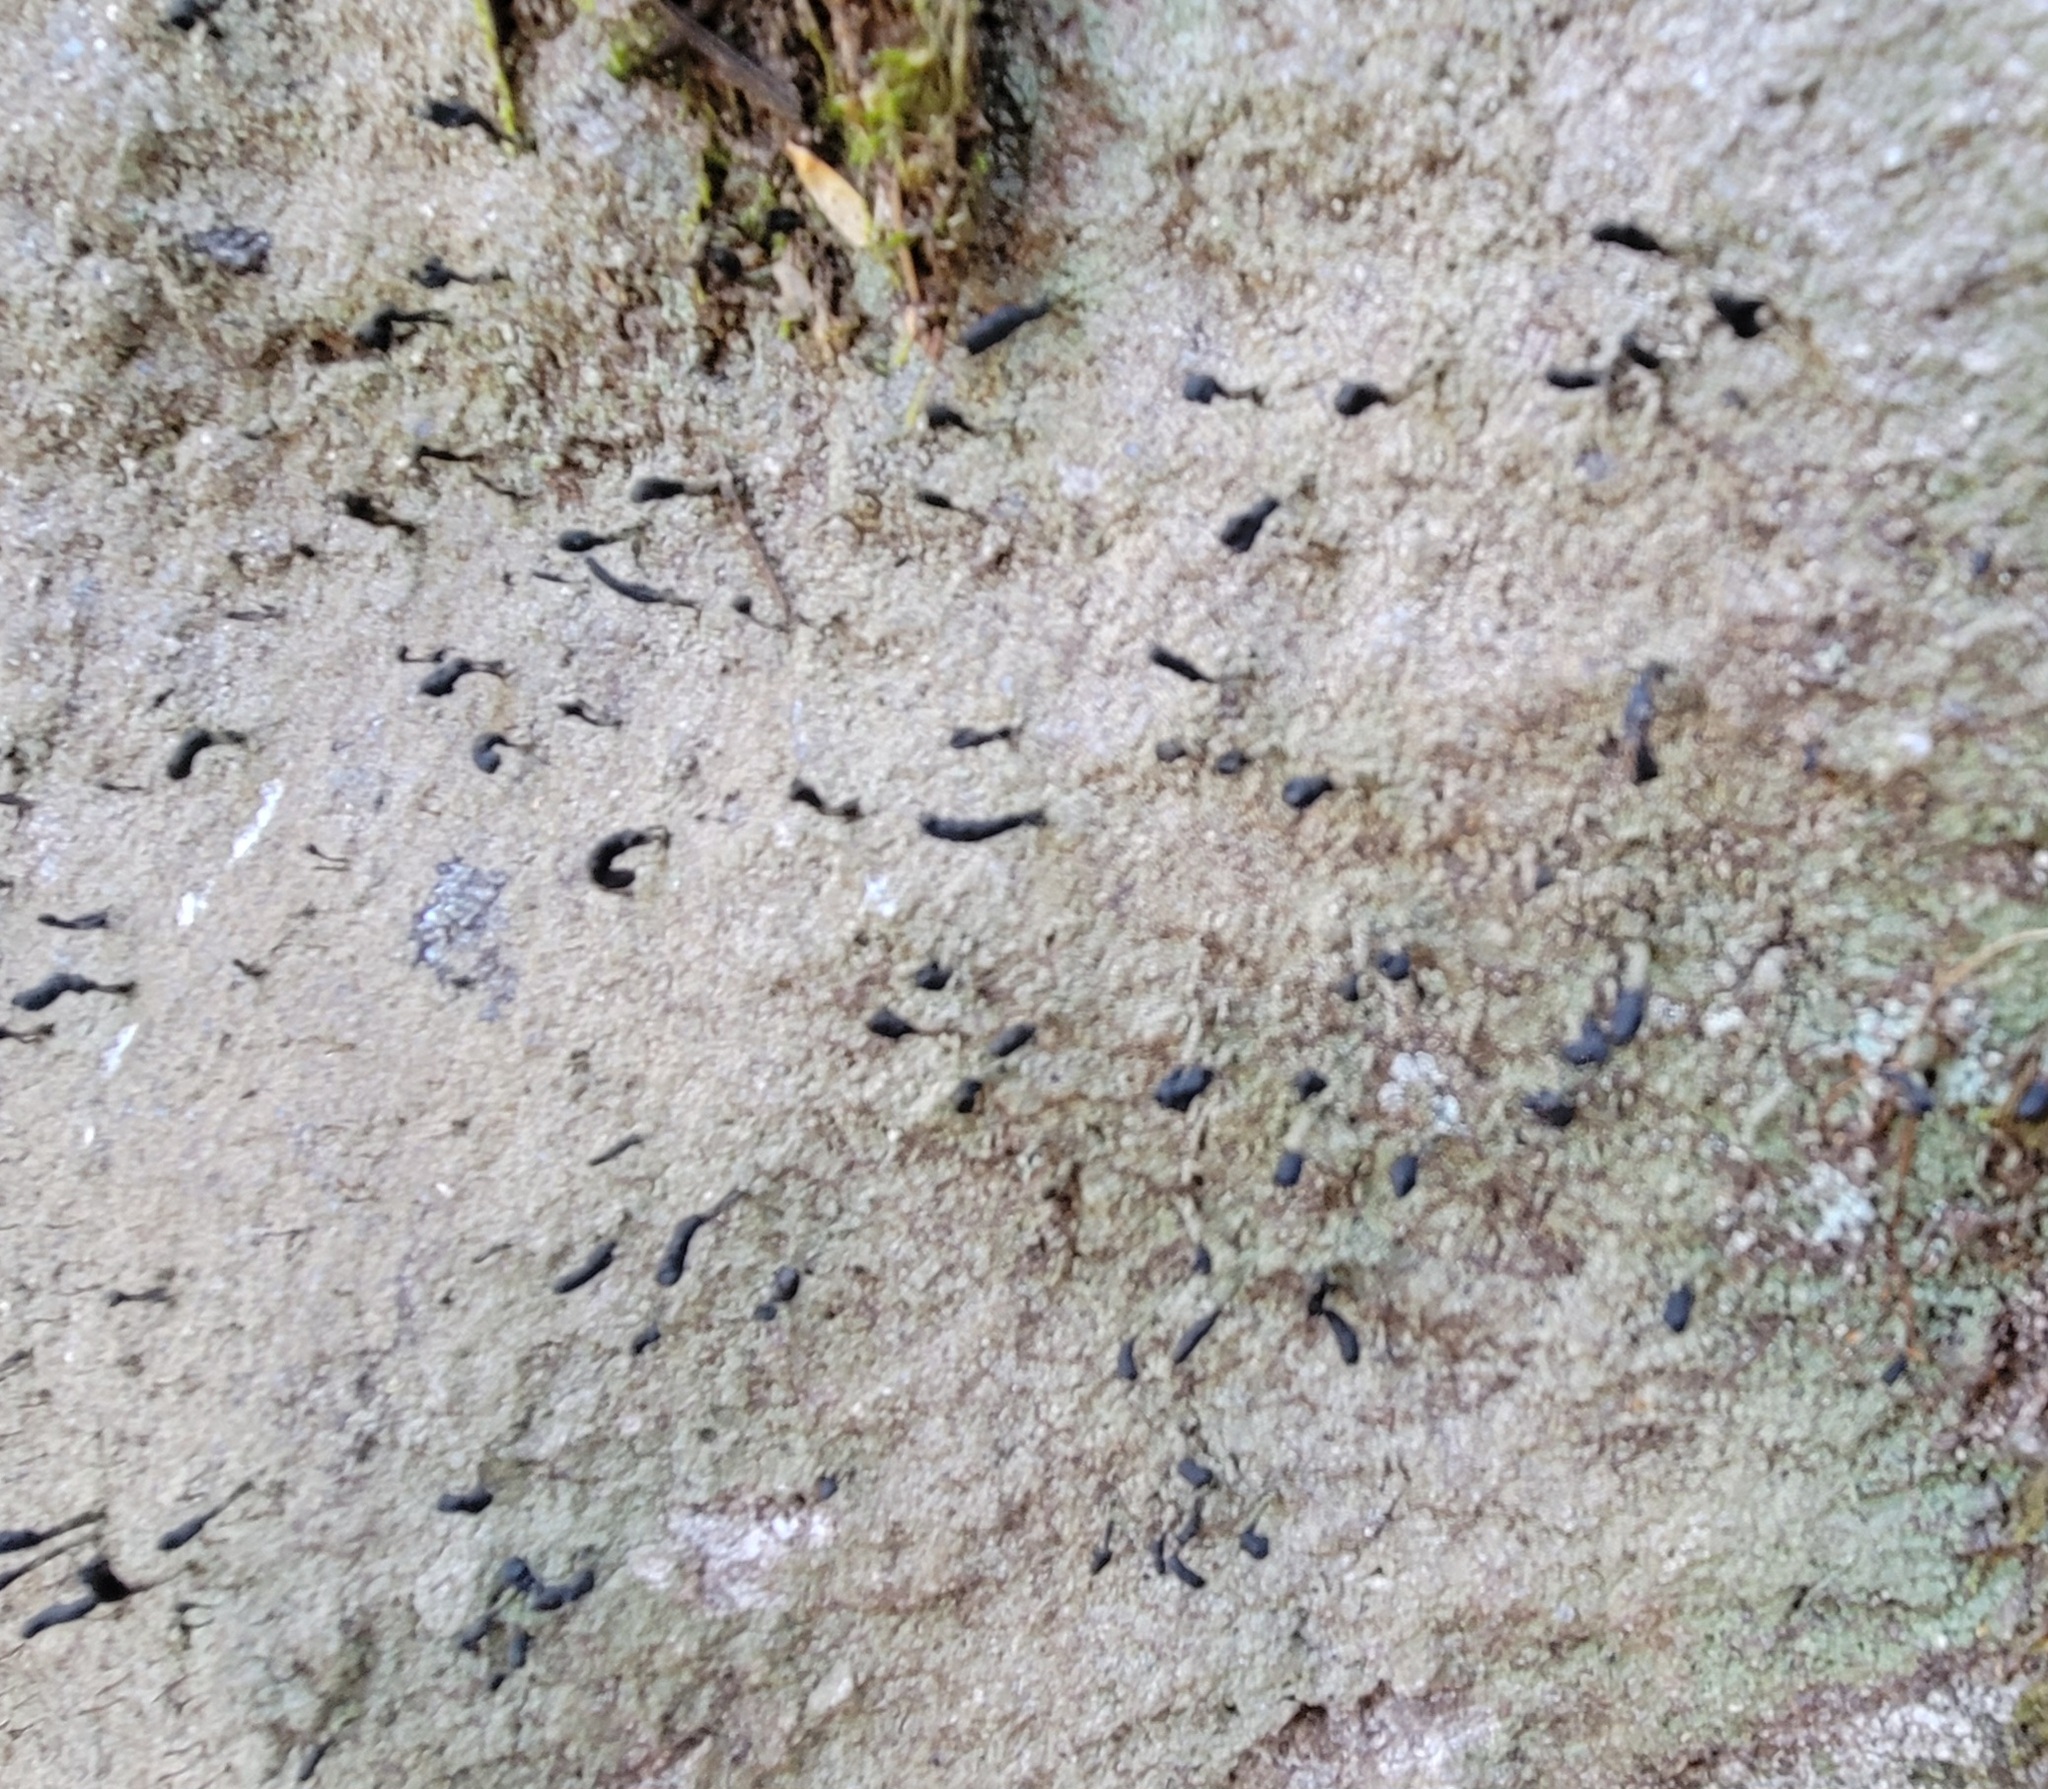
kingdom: Fungi
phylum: Ascomycota
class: Lecanoromycetes
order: Lecanorales
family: Cladoniaceae
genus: Pilophorus
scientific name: Pilophorus clavatus
